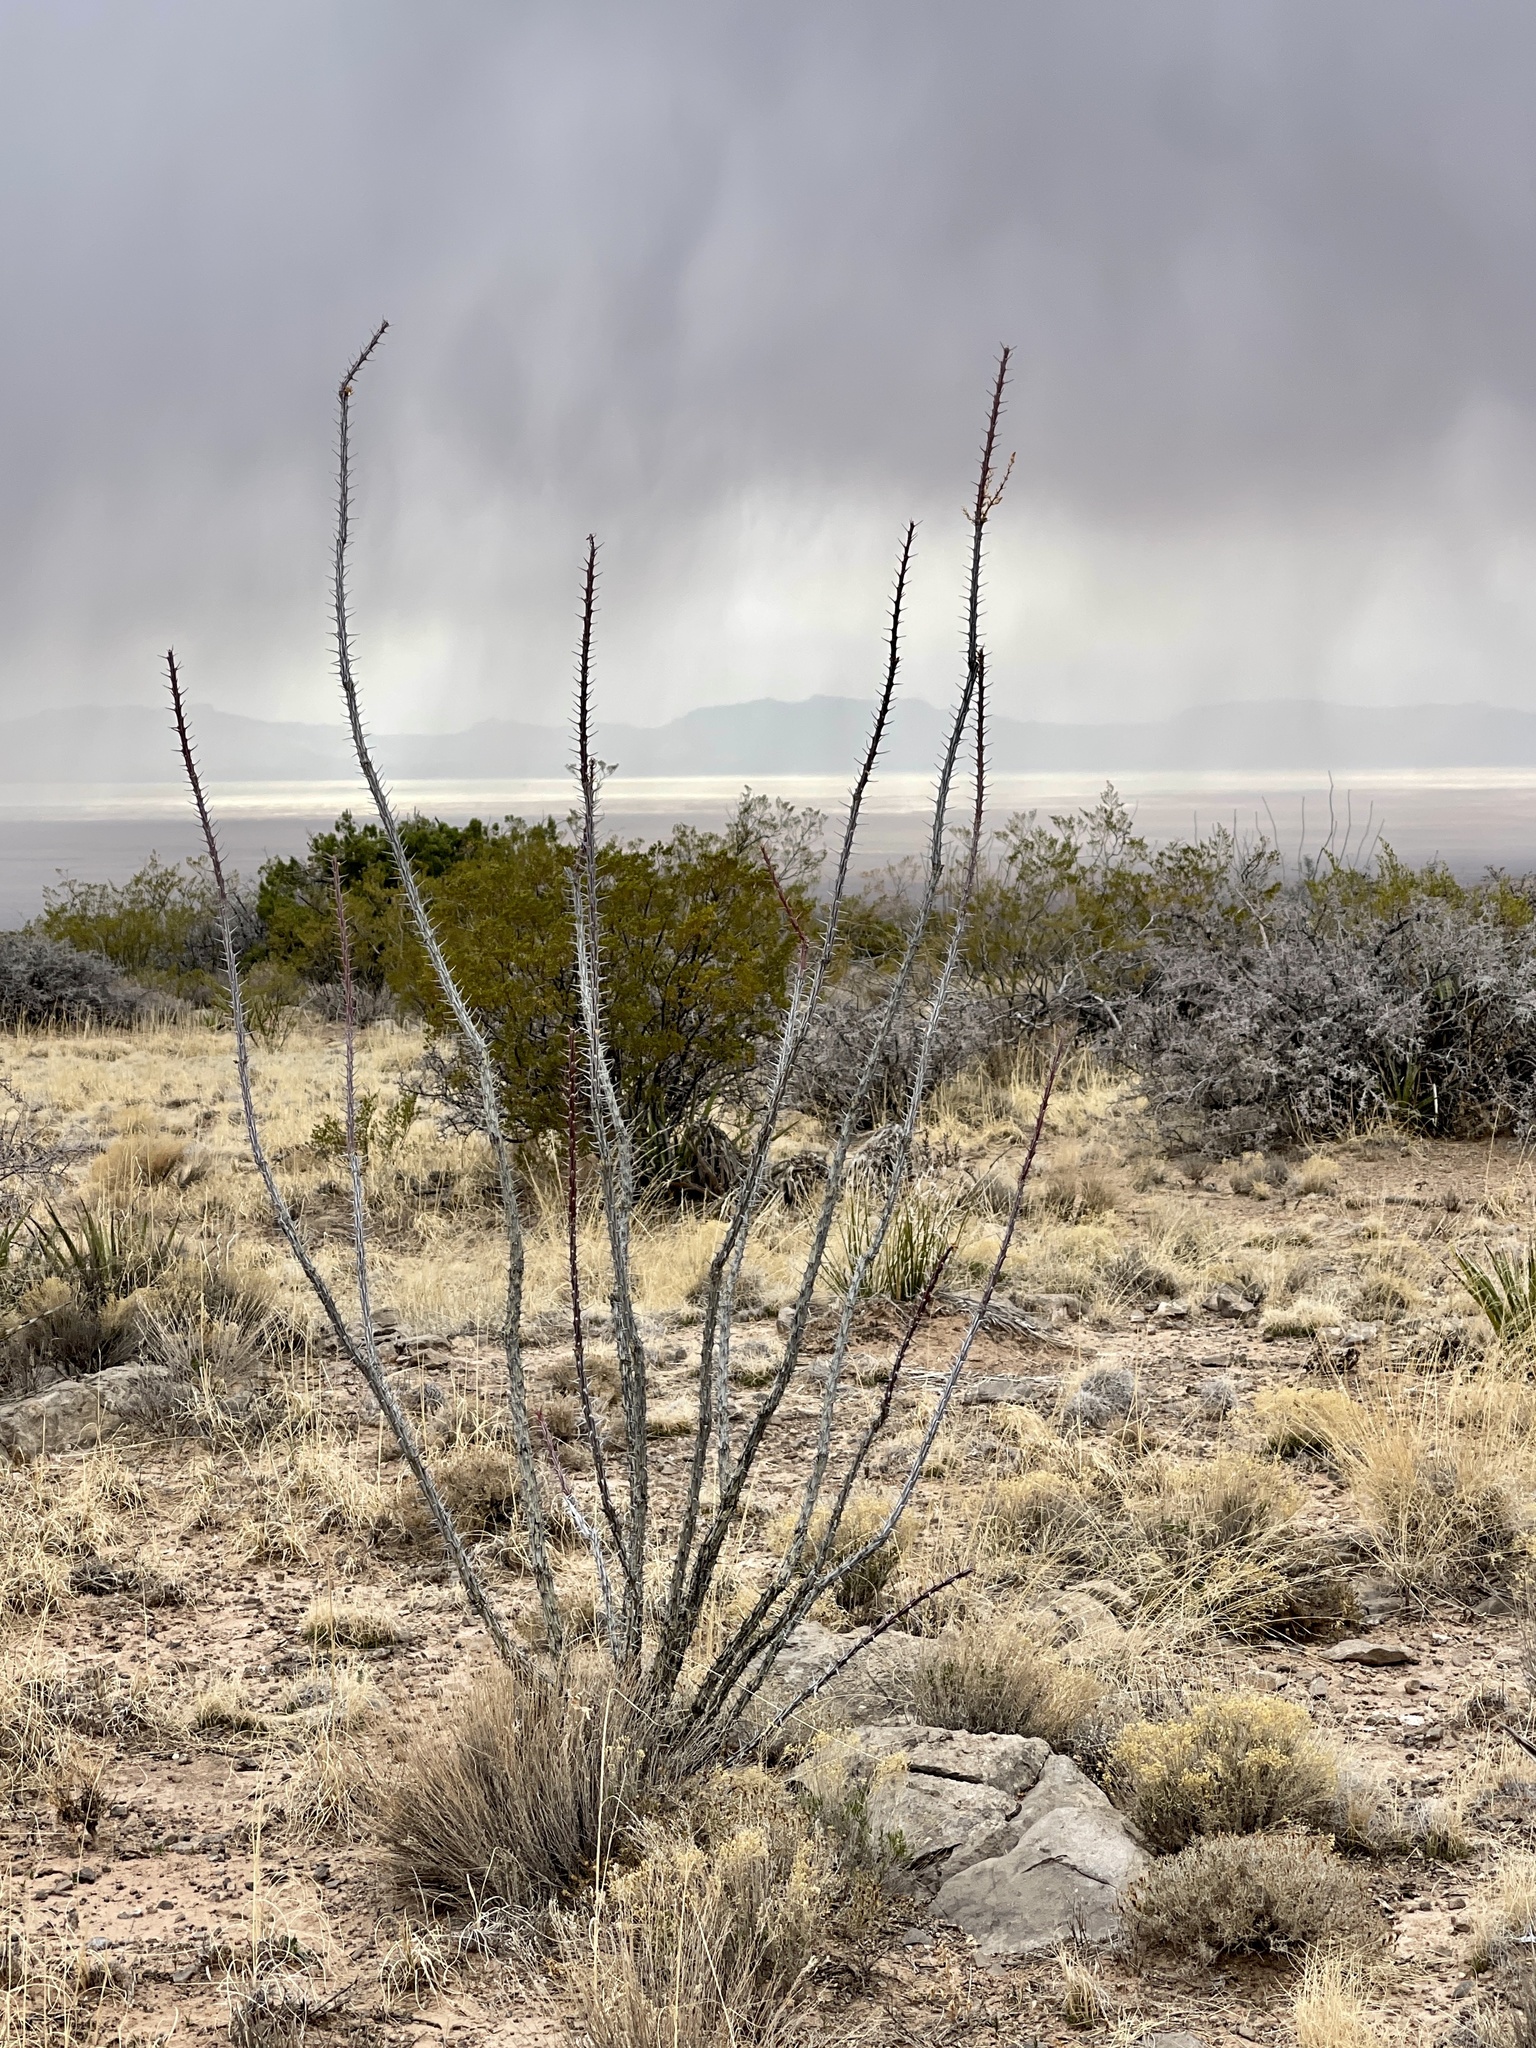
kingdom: Plantae
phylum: Tracheophyta
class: Magnoliopsida
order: Ericales
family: Fouquieriaceae
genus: Fouquieria
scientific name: Fouquieria splendens
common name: Vine-cactus
